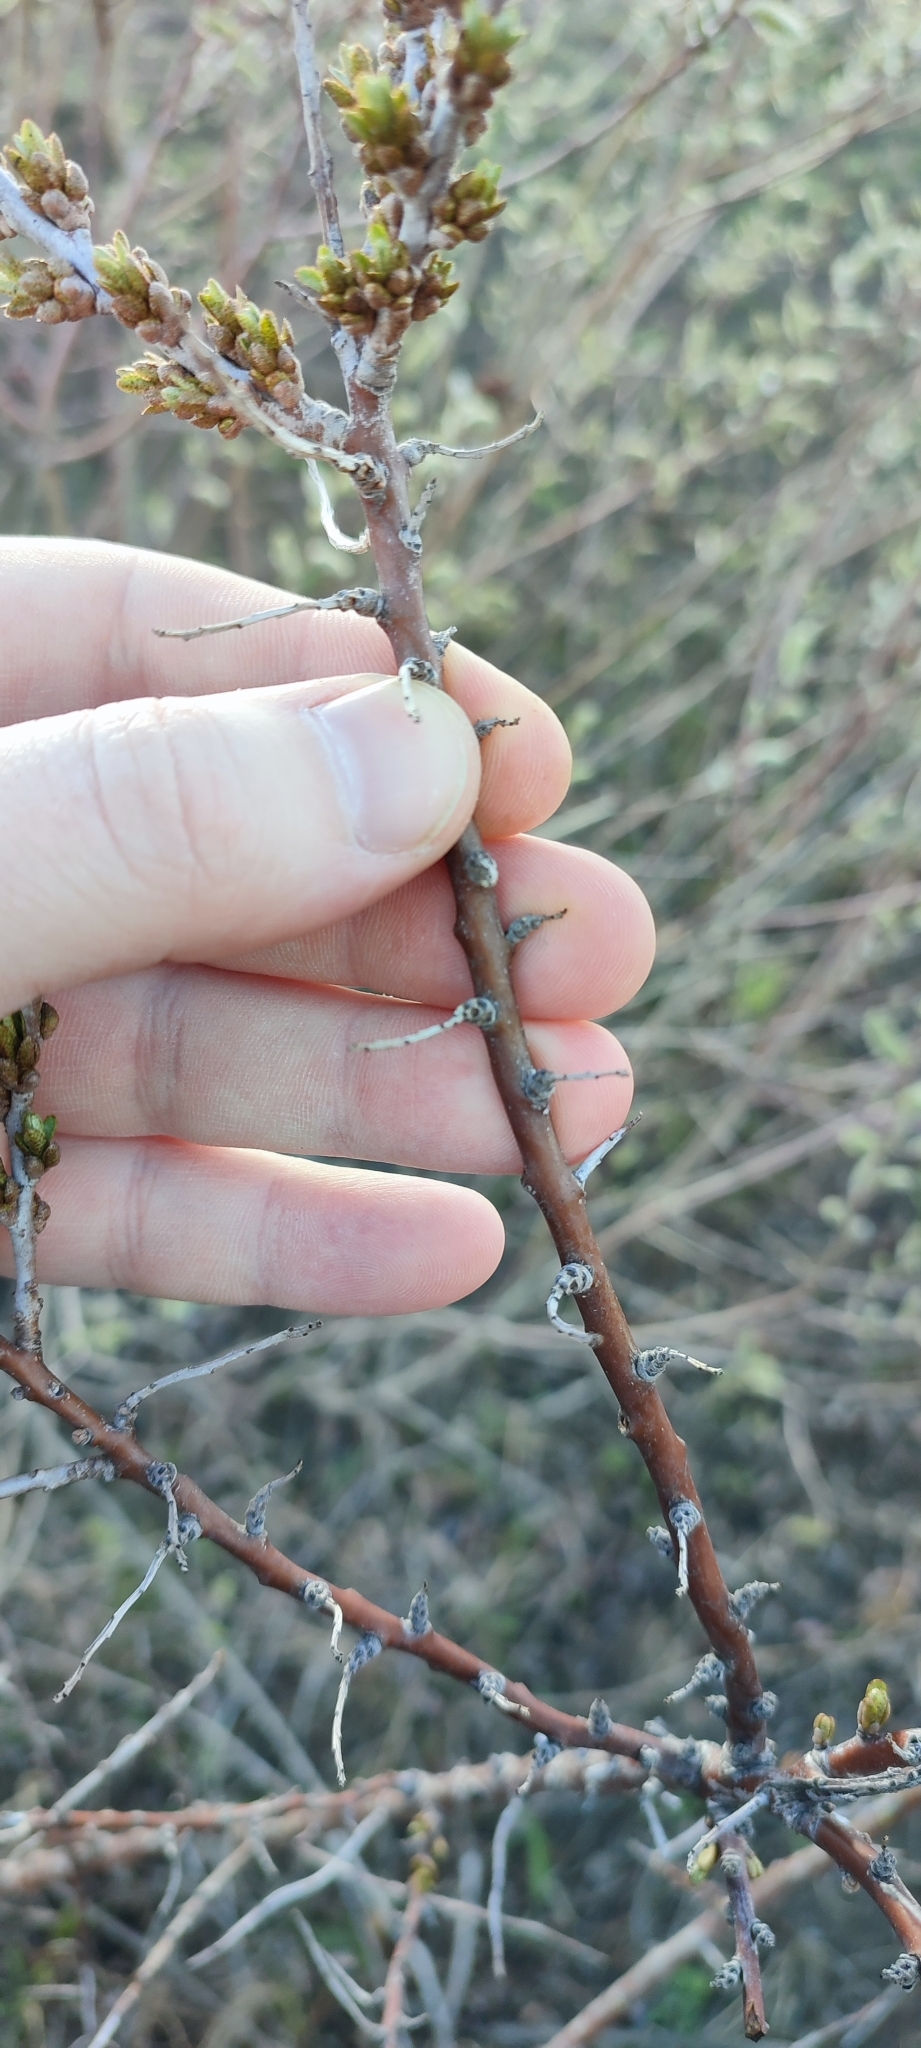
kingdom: Plantae
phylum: Tracheophyta
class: Magnoliopsida
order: Rosales
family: Elaeagnaceae
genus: Hippophae
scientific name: Hippophae rhamnoides
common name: Sea-buckthorn
